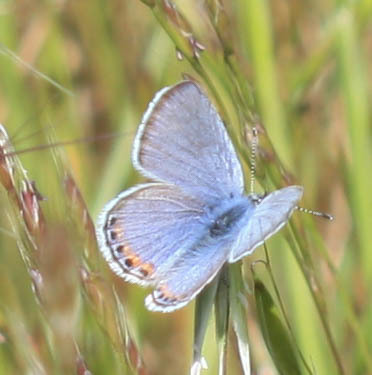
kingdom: Animalia
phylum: Arthropoda
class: Insecta
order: Lepidoptera
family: Lycaenidae
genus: Icaricia
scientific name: Icaricia acmon
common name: Acmon blue
